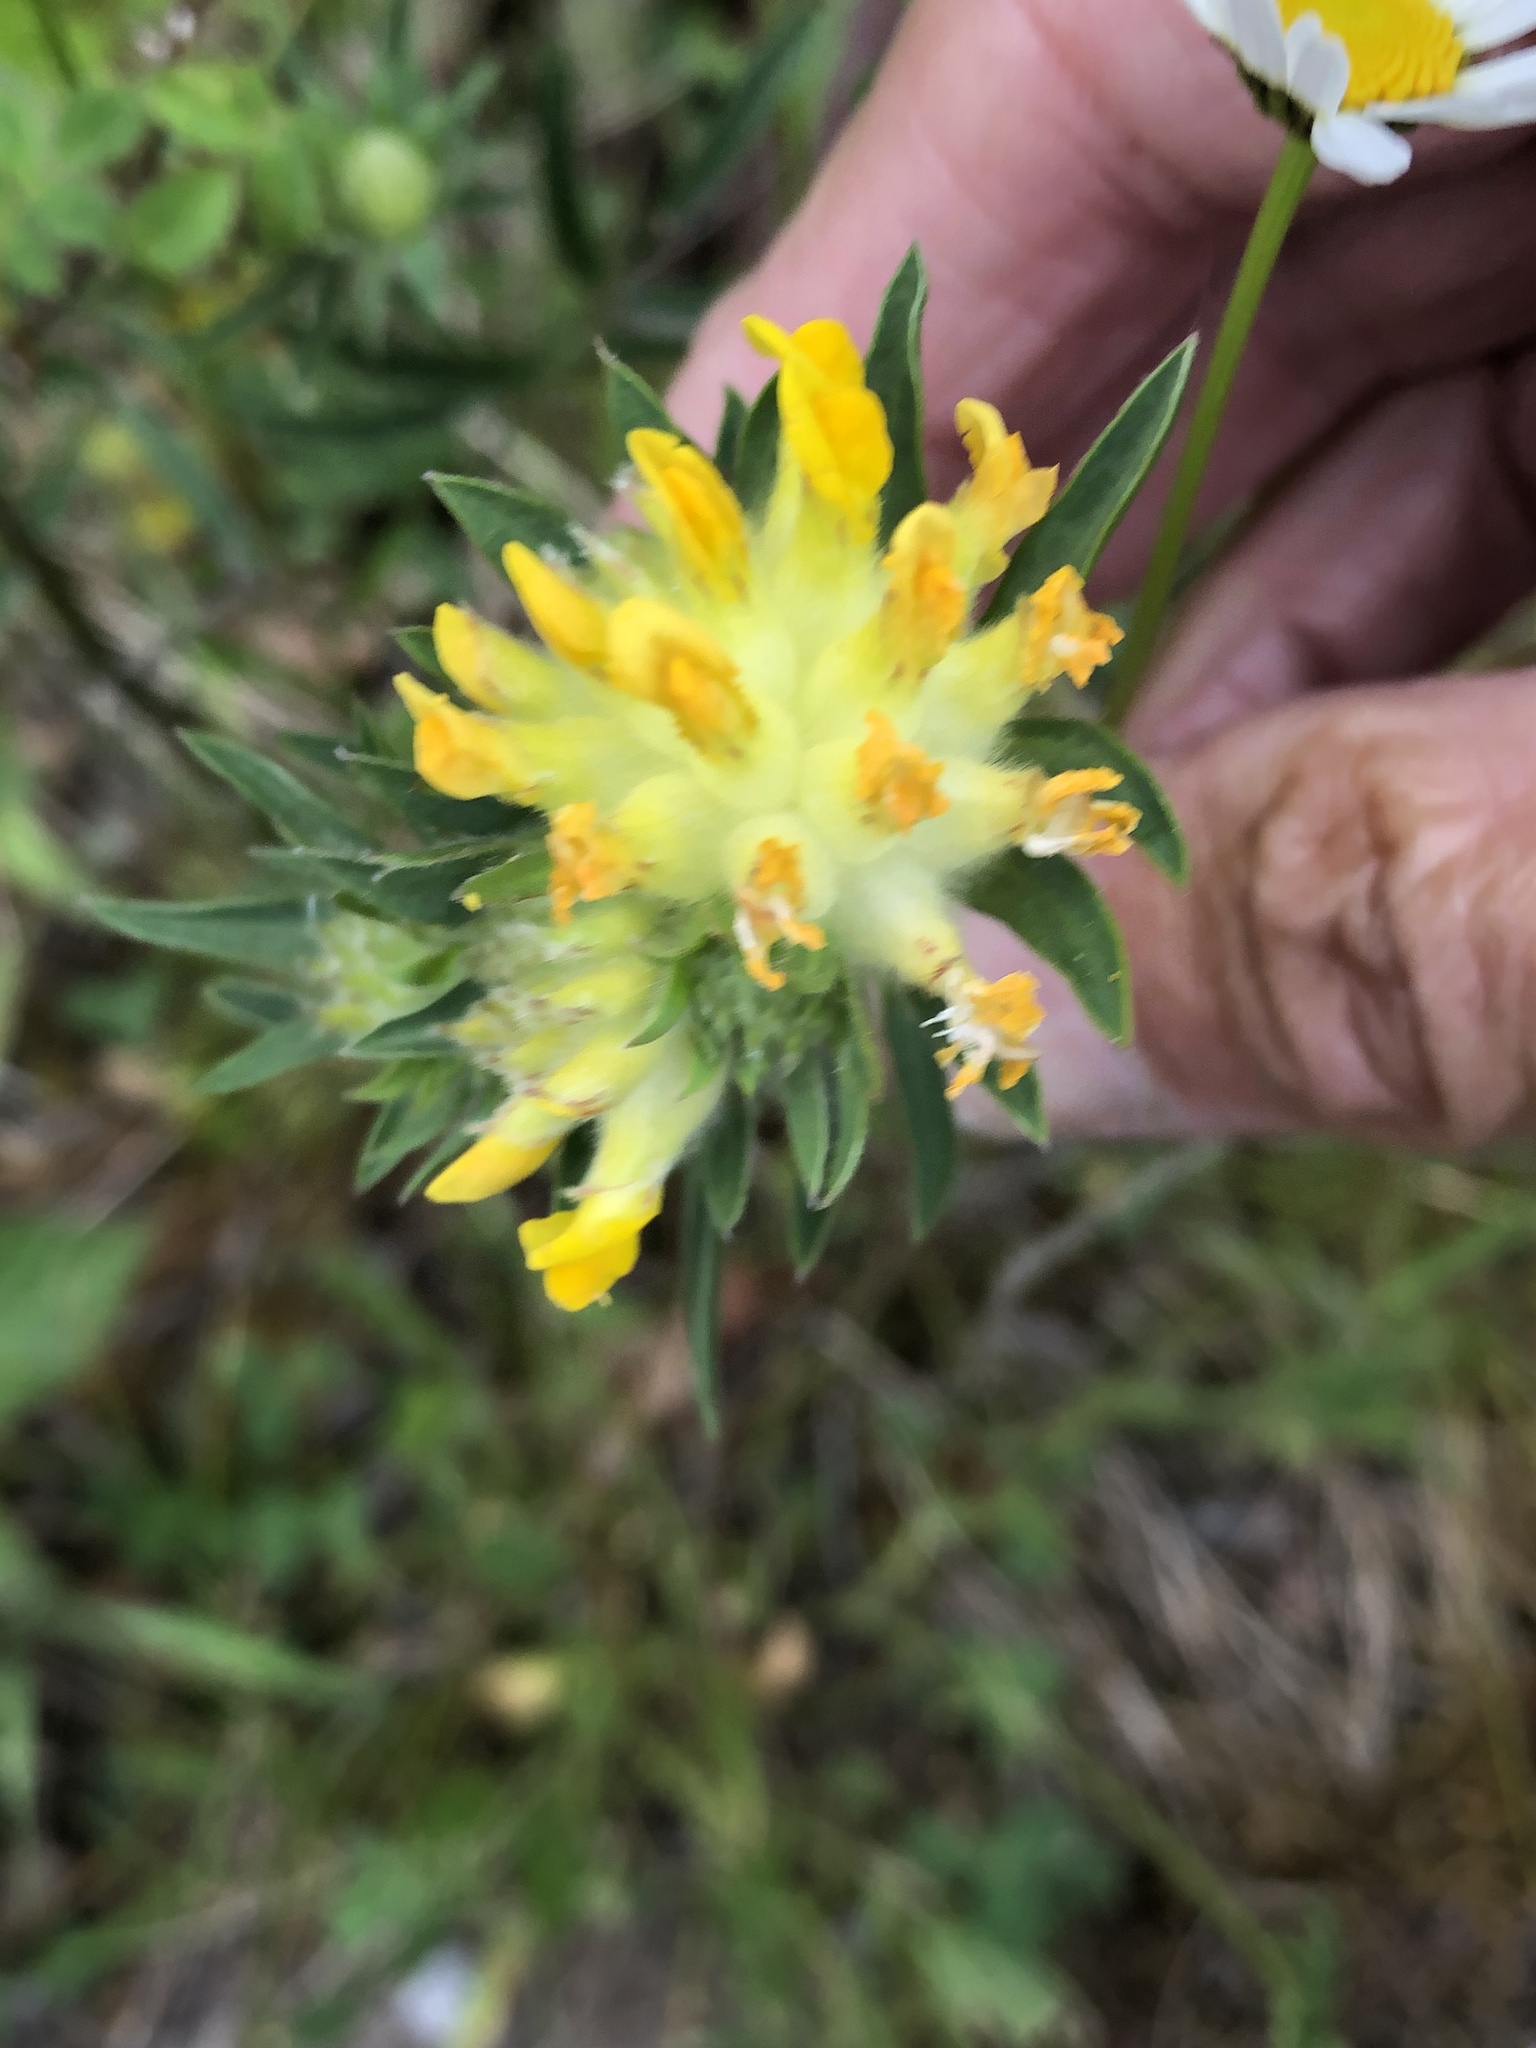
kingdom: Plantae
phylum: Tracheophyta
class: Magnoliopsida
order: Fabales
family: Fabaceae
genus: Anthyllis
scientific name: Anthyllis vulneraria
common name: Kidney vetch
